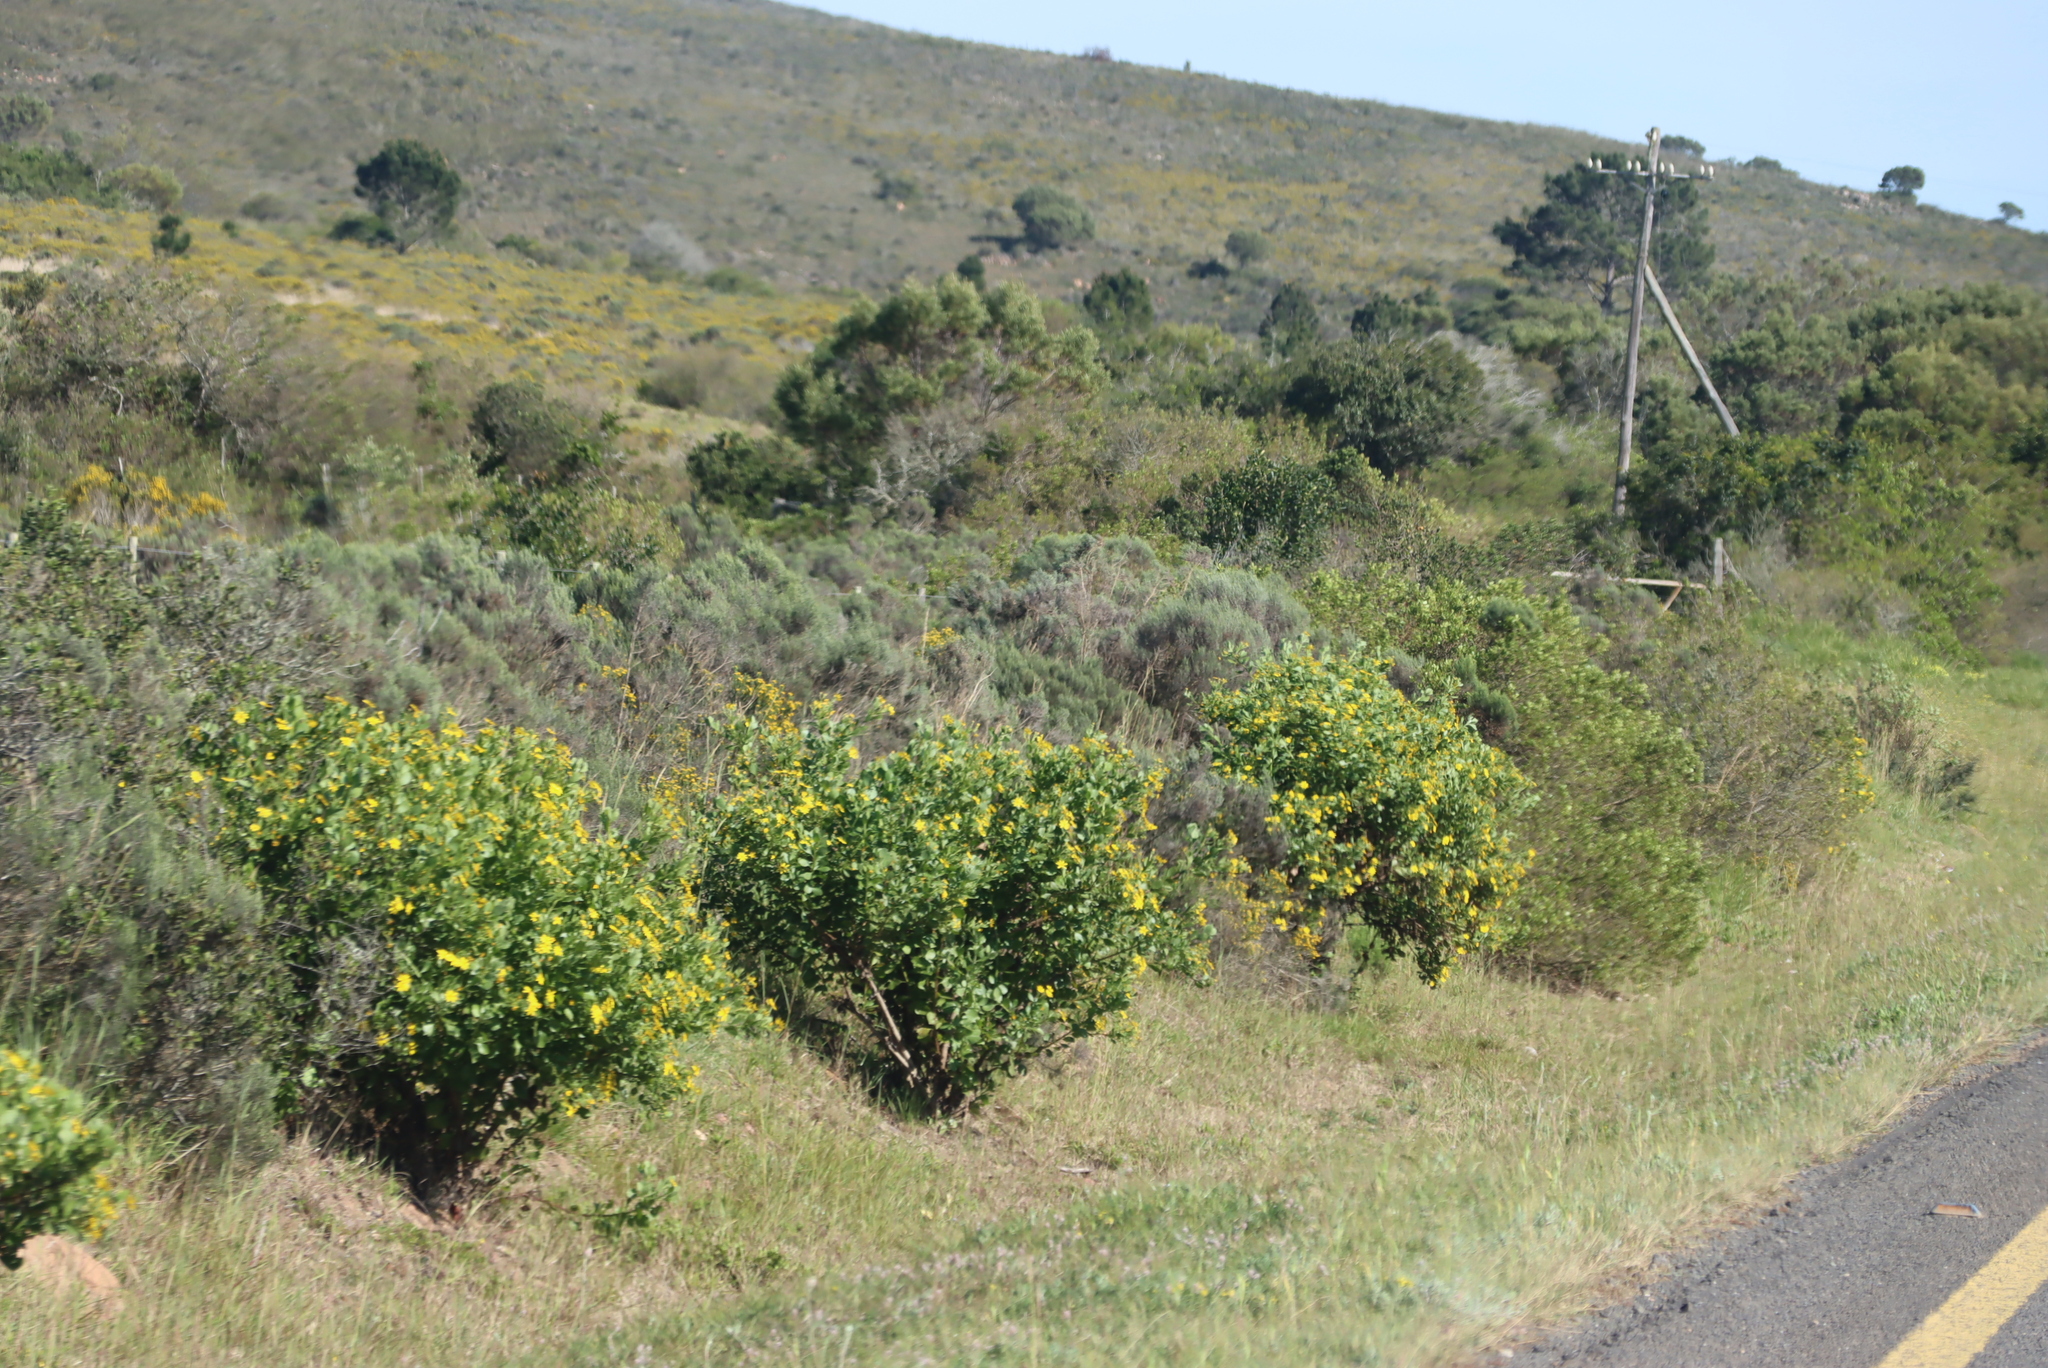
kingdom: Plantae
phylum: Tracheophyta
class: Magnoliopsida
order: Asterales
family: Asteraceae
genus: Osteospermum
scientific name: Osteospermum moniliferum
